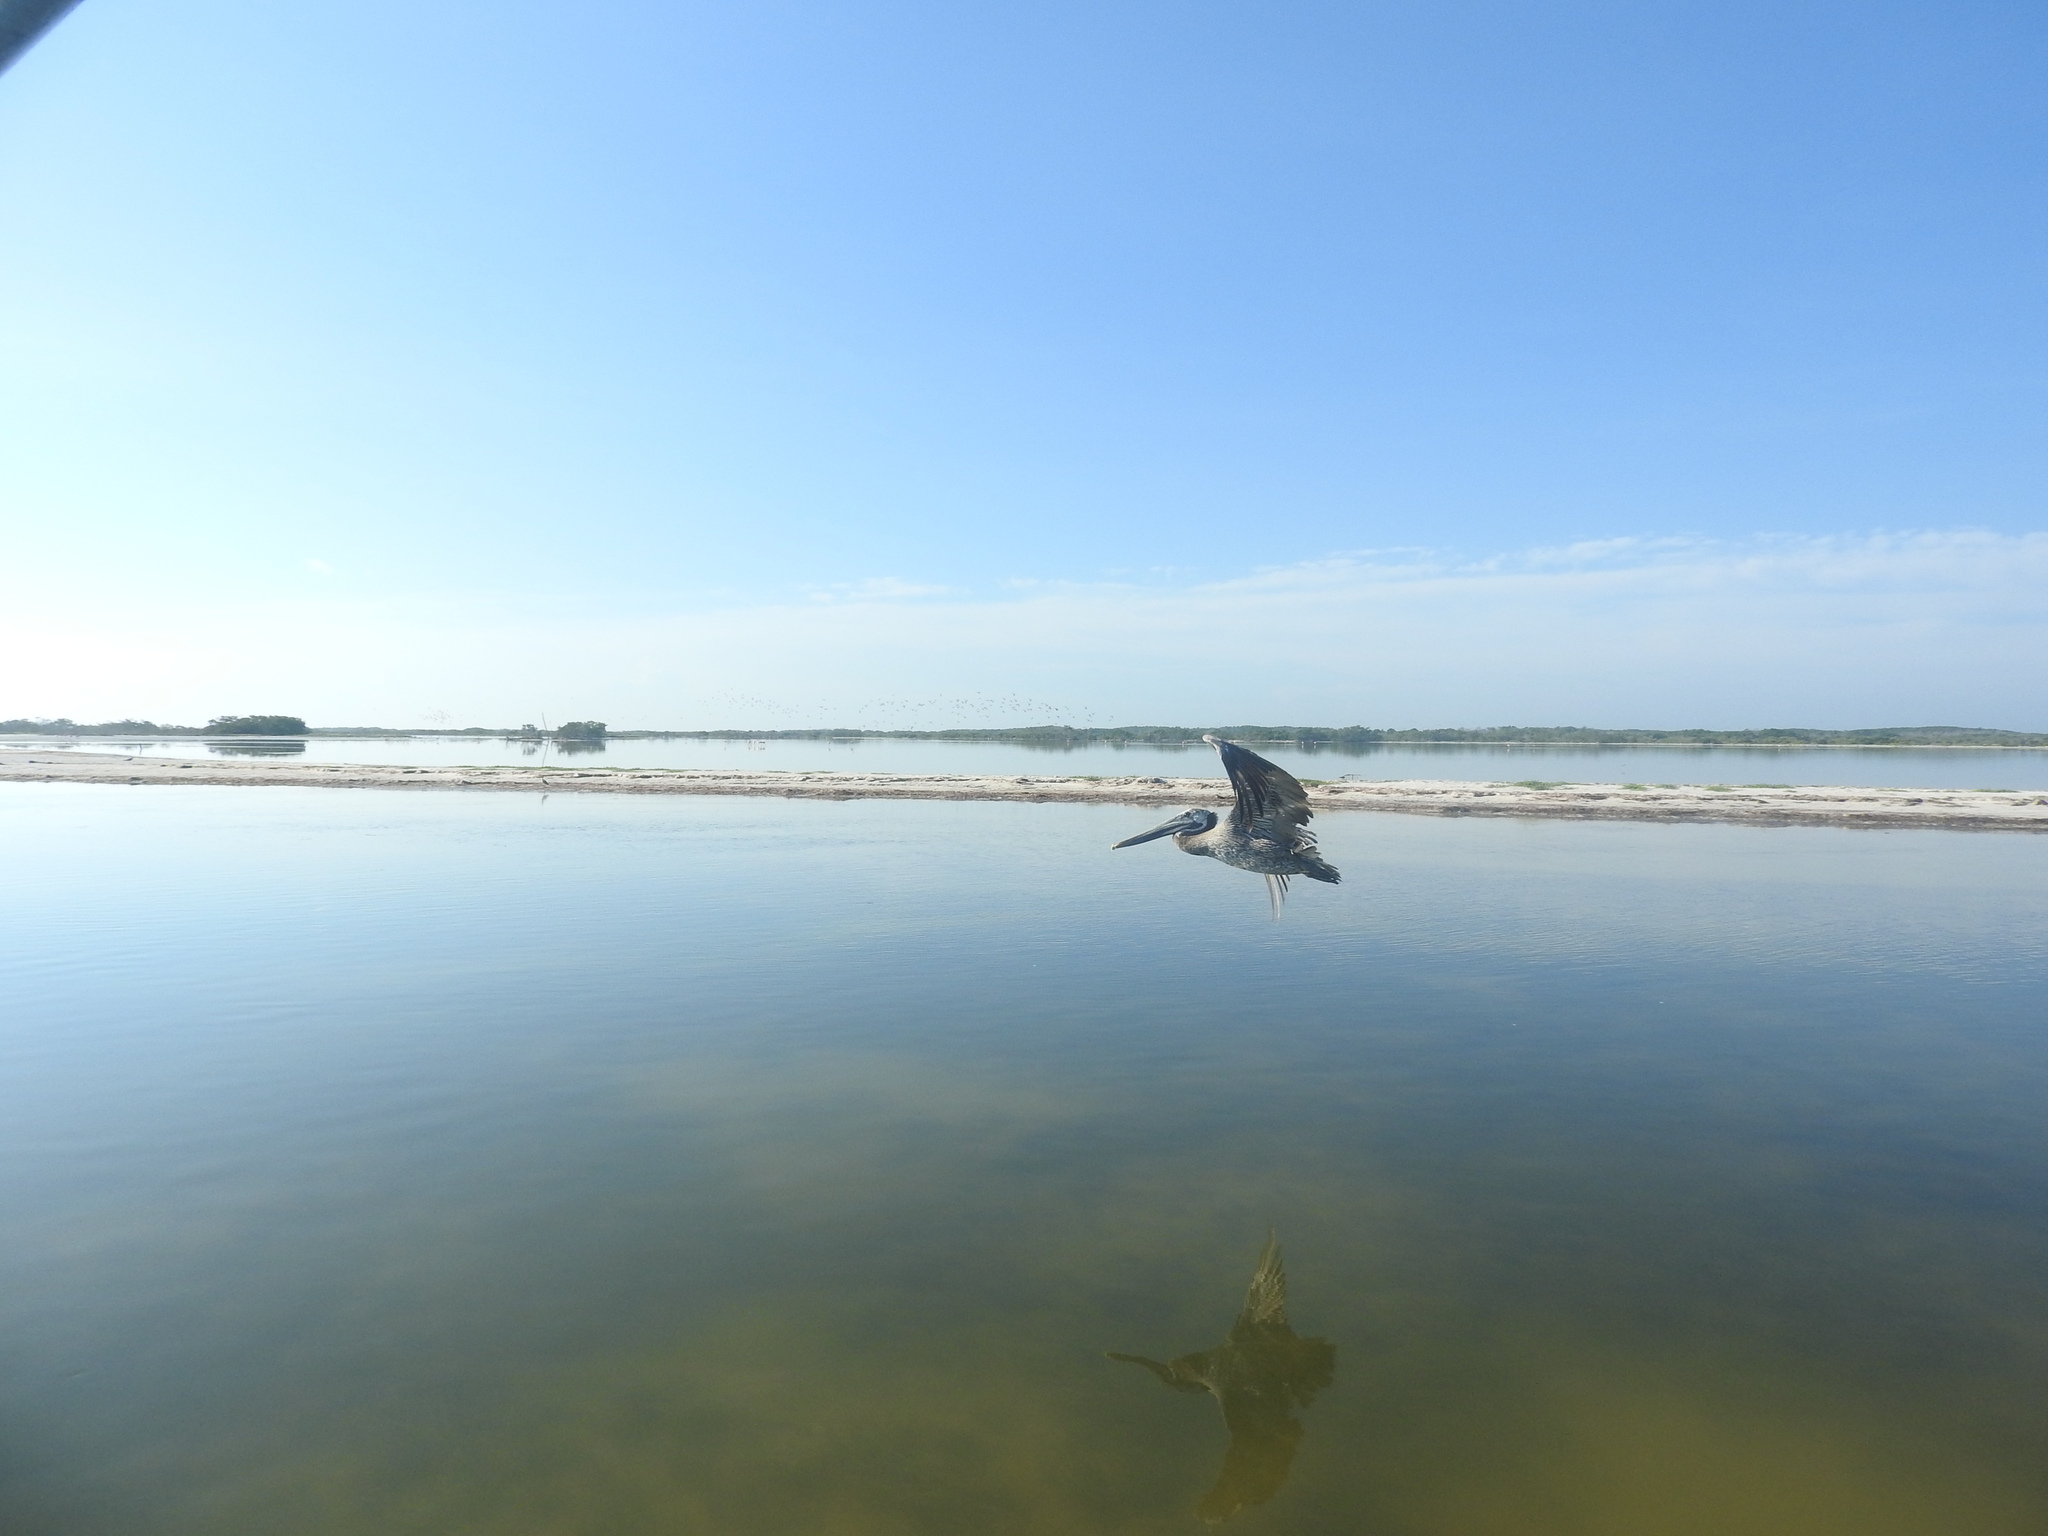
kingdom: Animalia
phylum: Chordata
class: Aves
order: Pelecaniformes
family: Pelecanidae
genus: Pelecanus
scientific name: Pelecanus occidentalis
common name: Brown pelican
